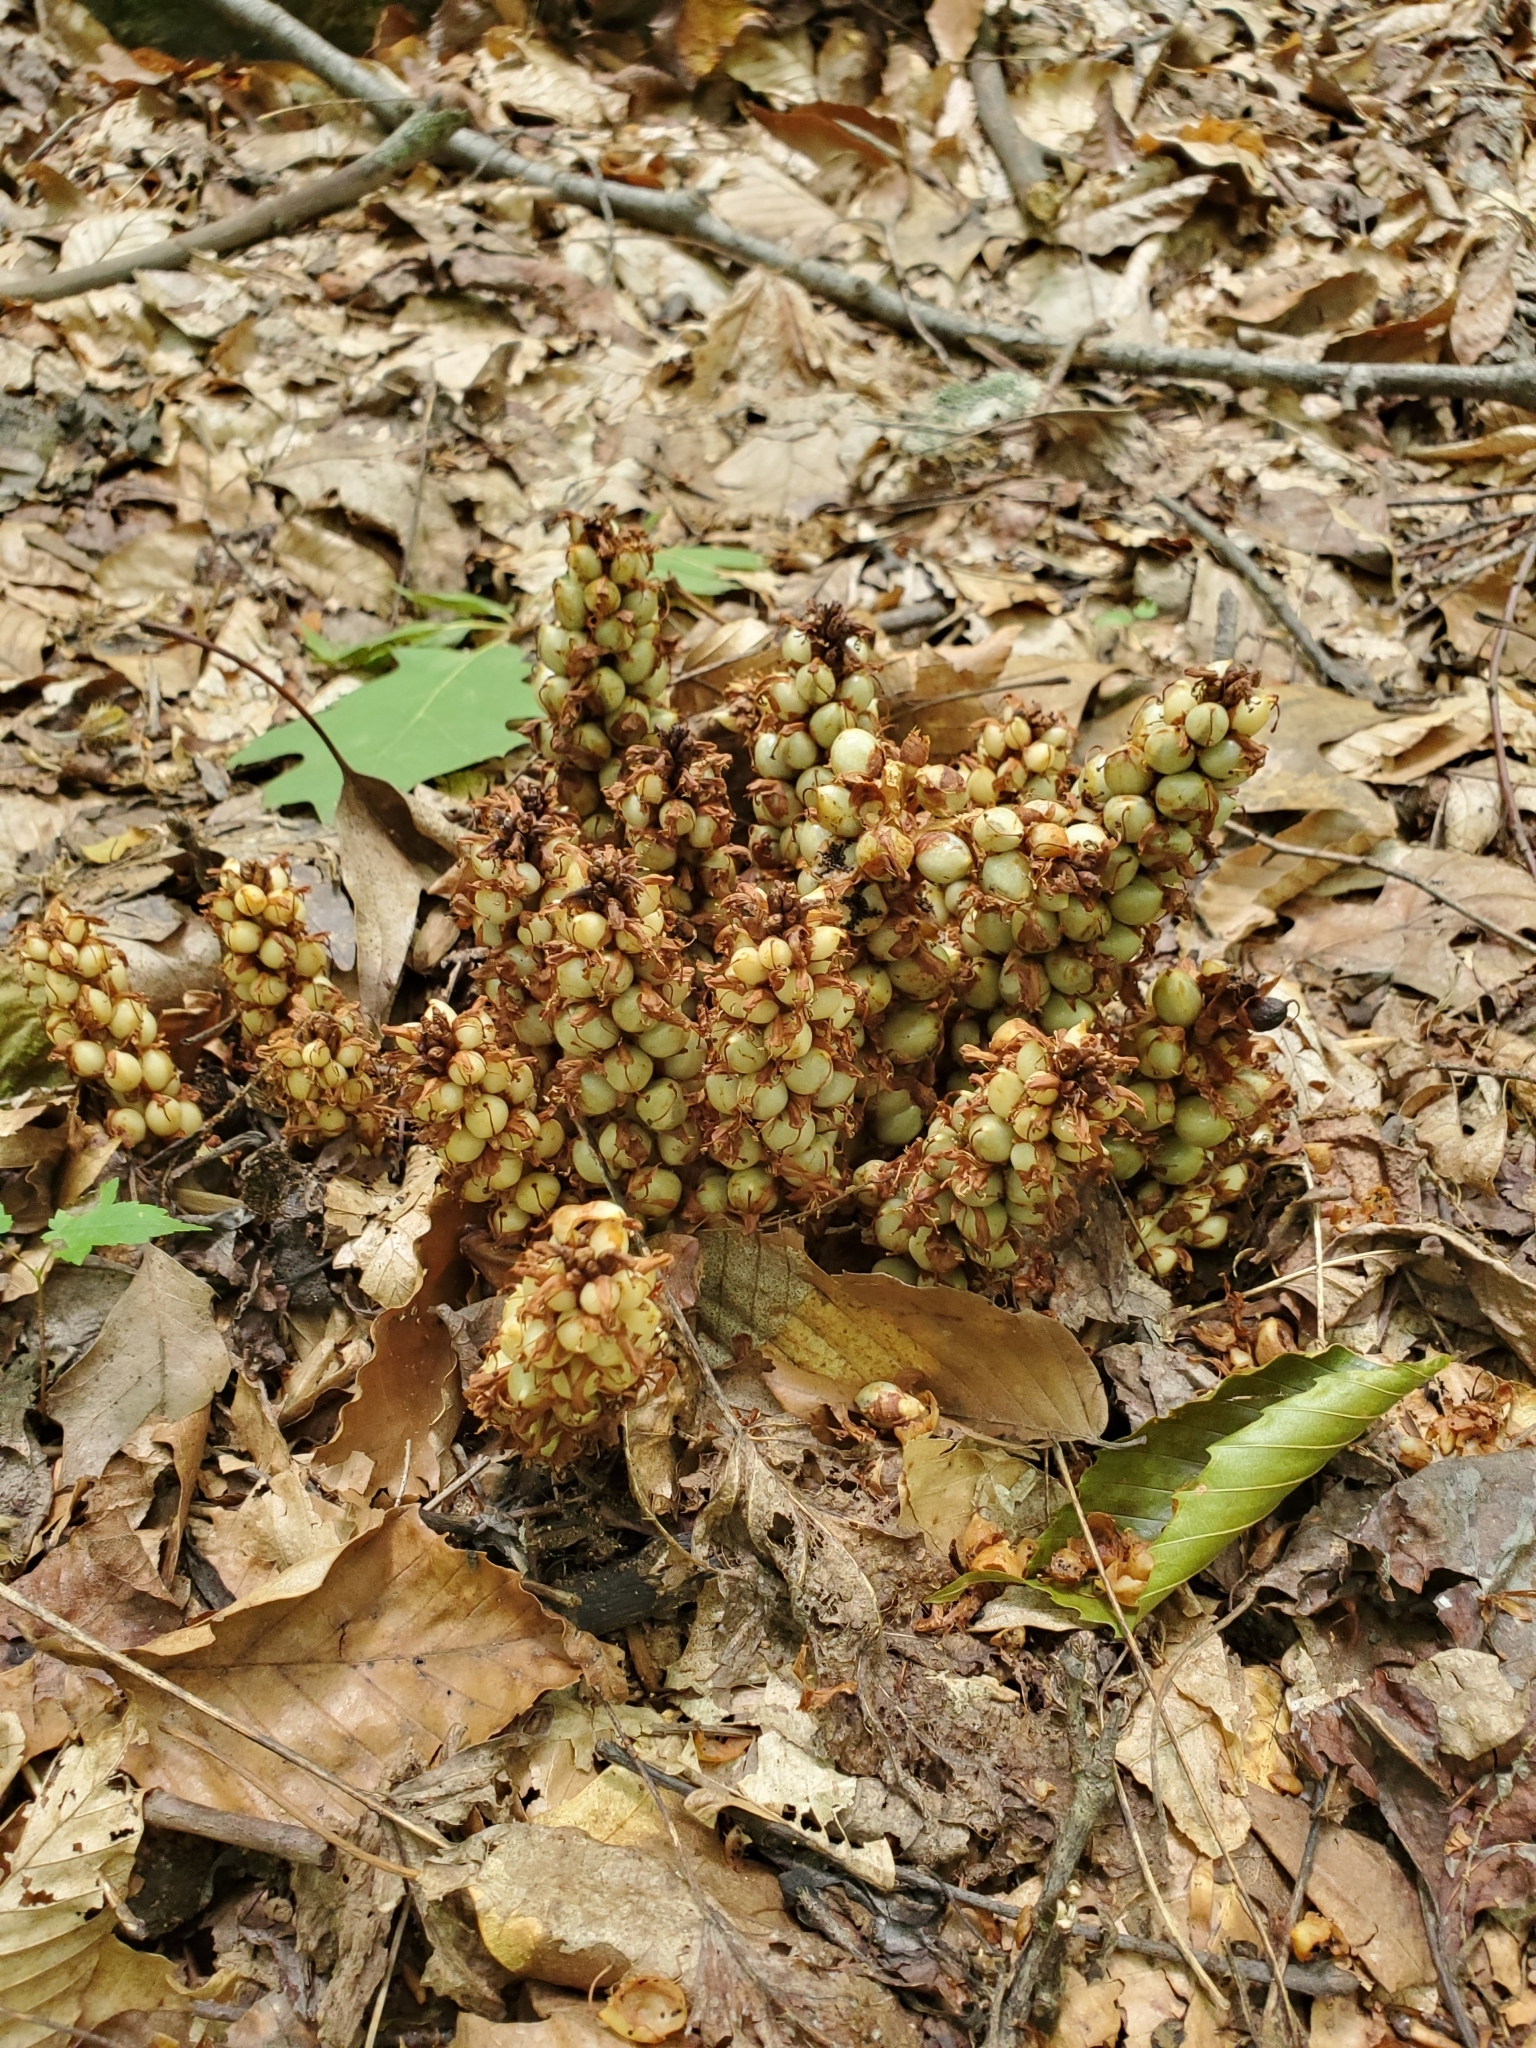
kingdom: Plantae
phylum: Tracheophyta
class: Magnoliopsida
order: Lamiales
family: Orobanchaceae
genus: Conopholis
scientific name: Conopholis americana
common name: American cancer-root
